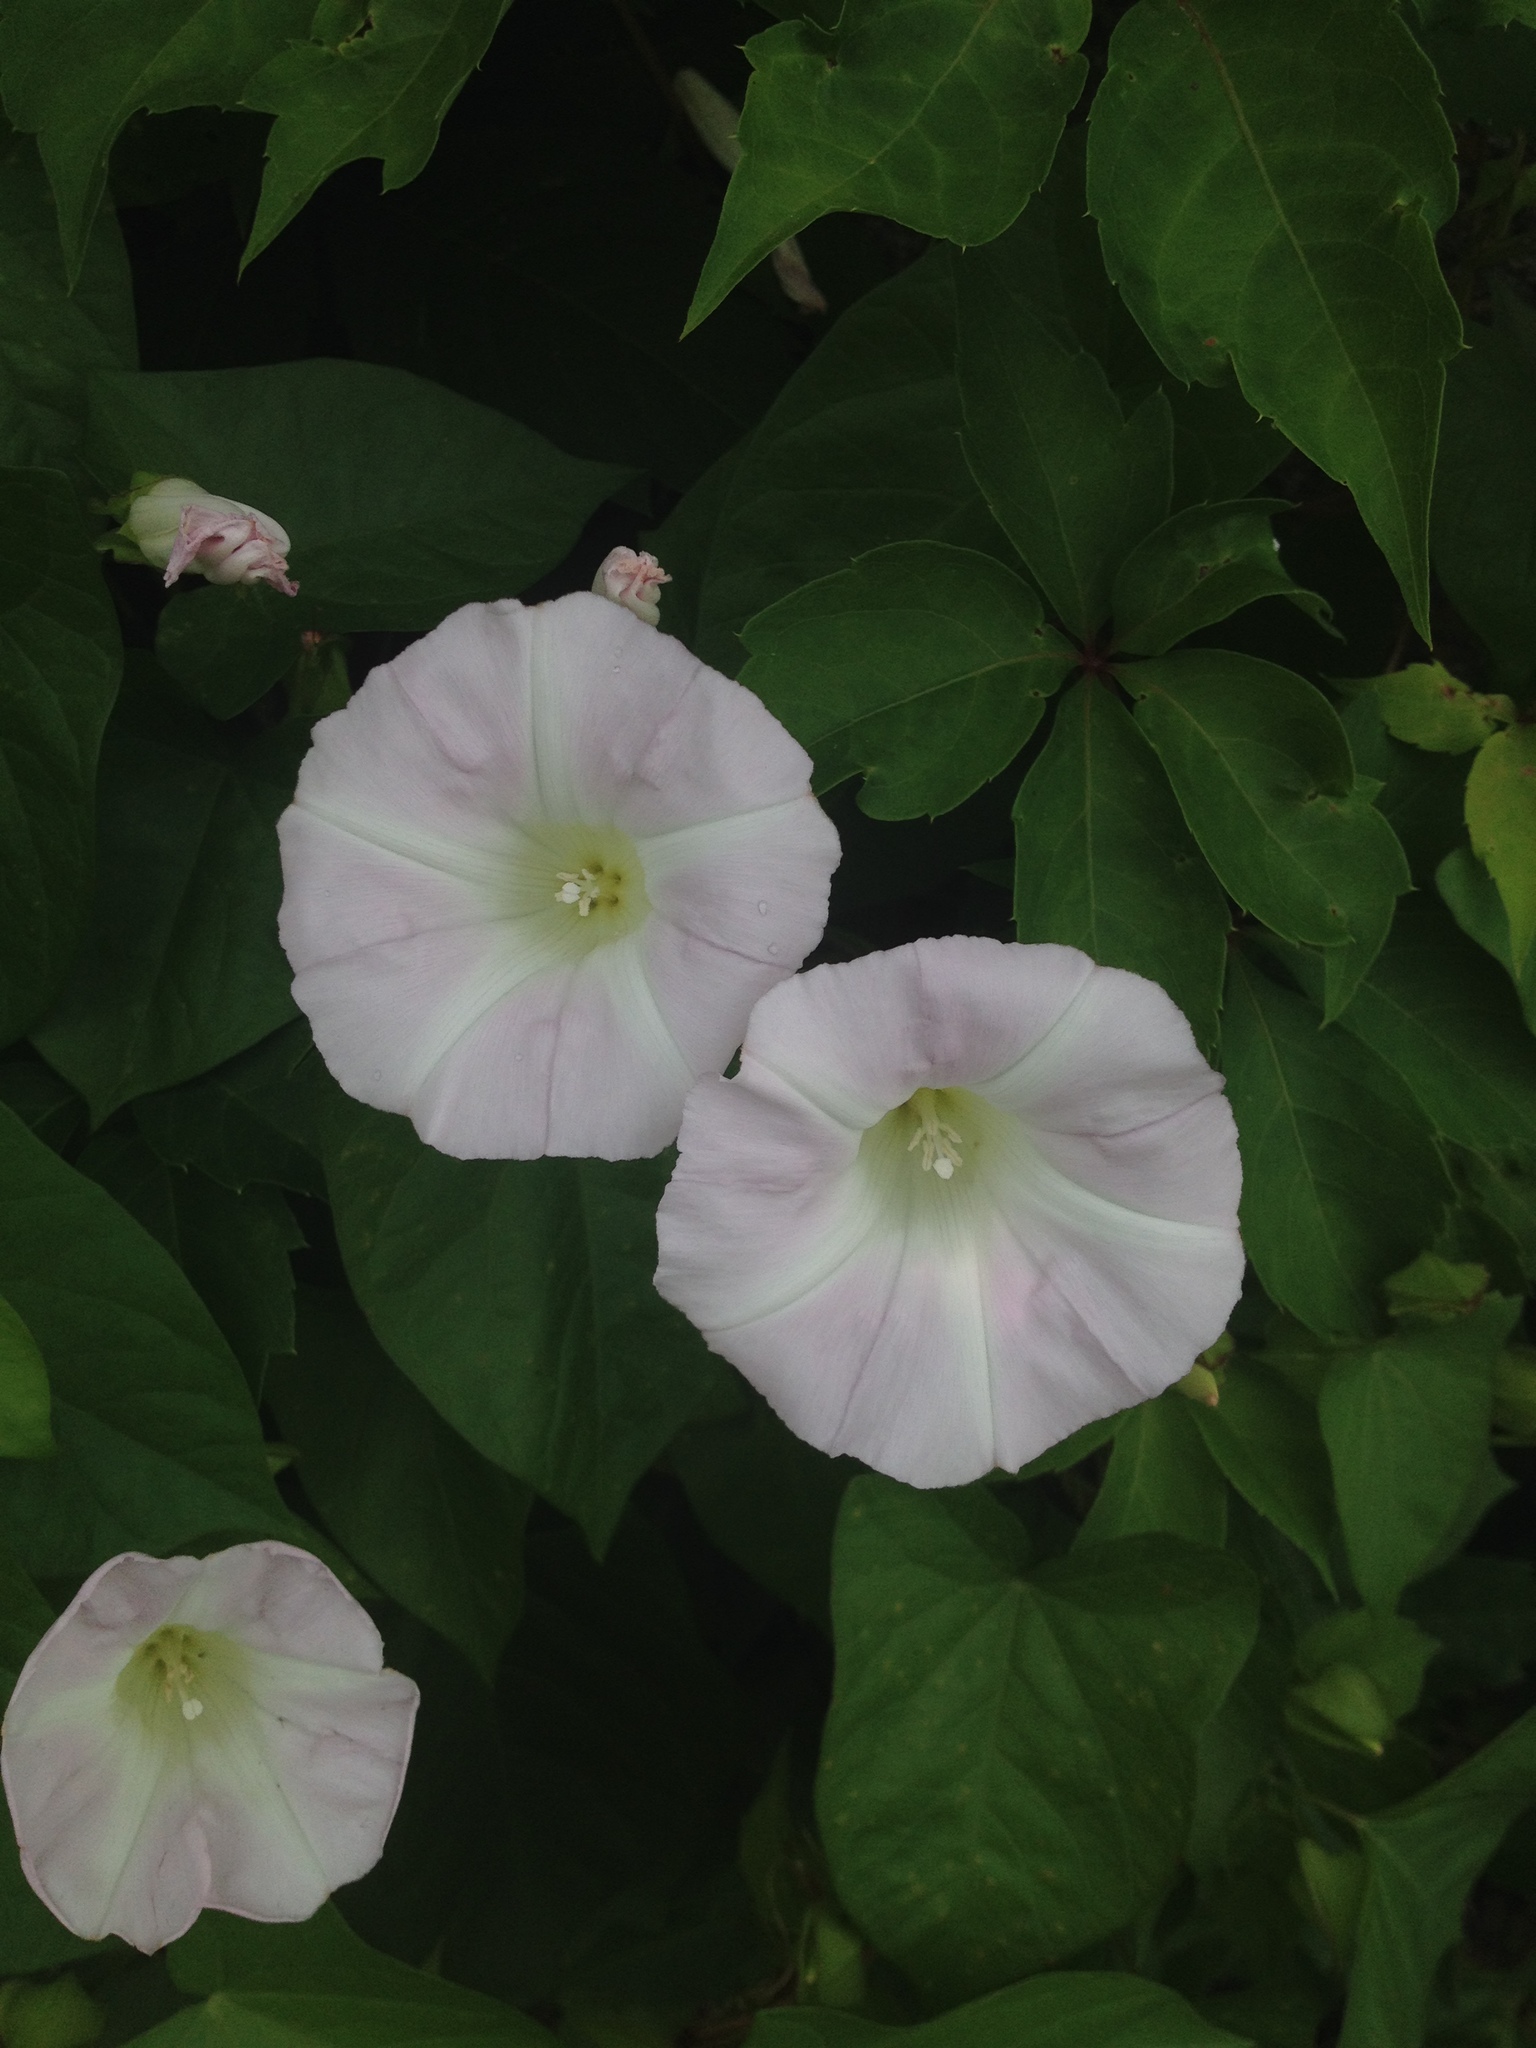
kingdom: Plantae
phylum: Tracheophyta
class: Magnoliopsida
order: Solanales
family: Convolvulaceae
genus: Calystegia
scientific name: Calystegia sepium
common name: Hedge bindweed
